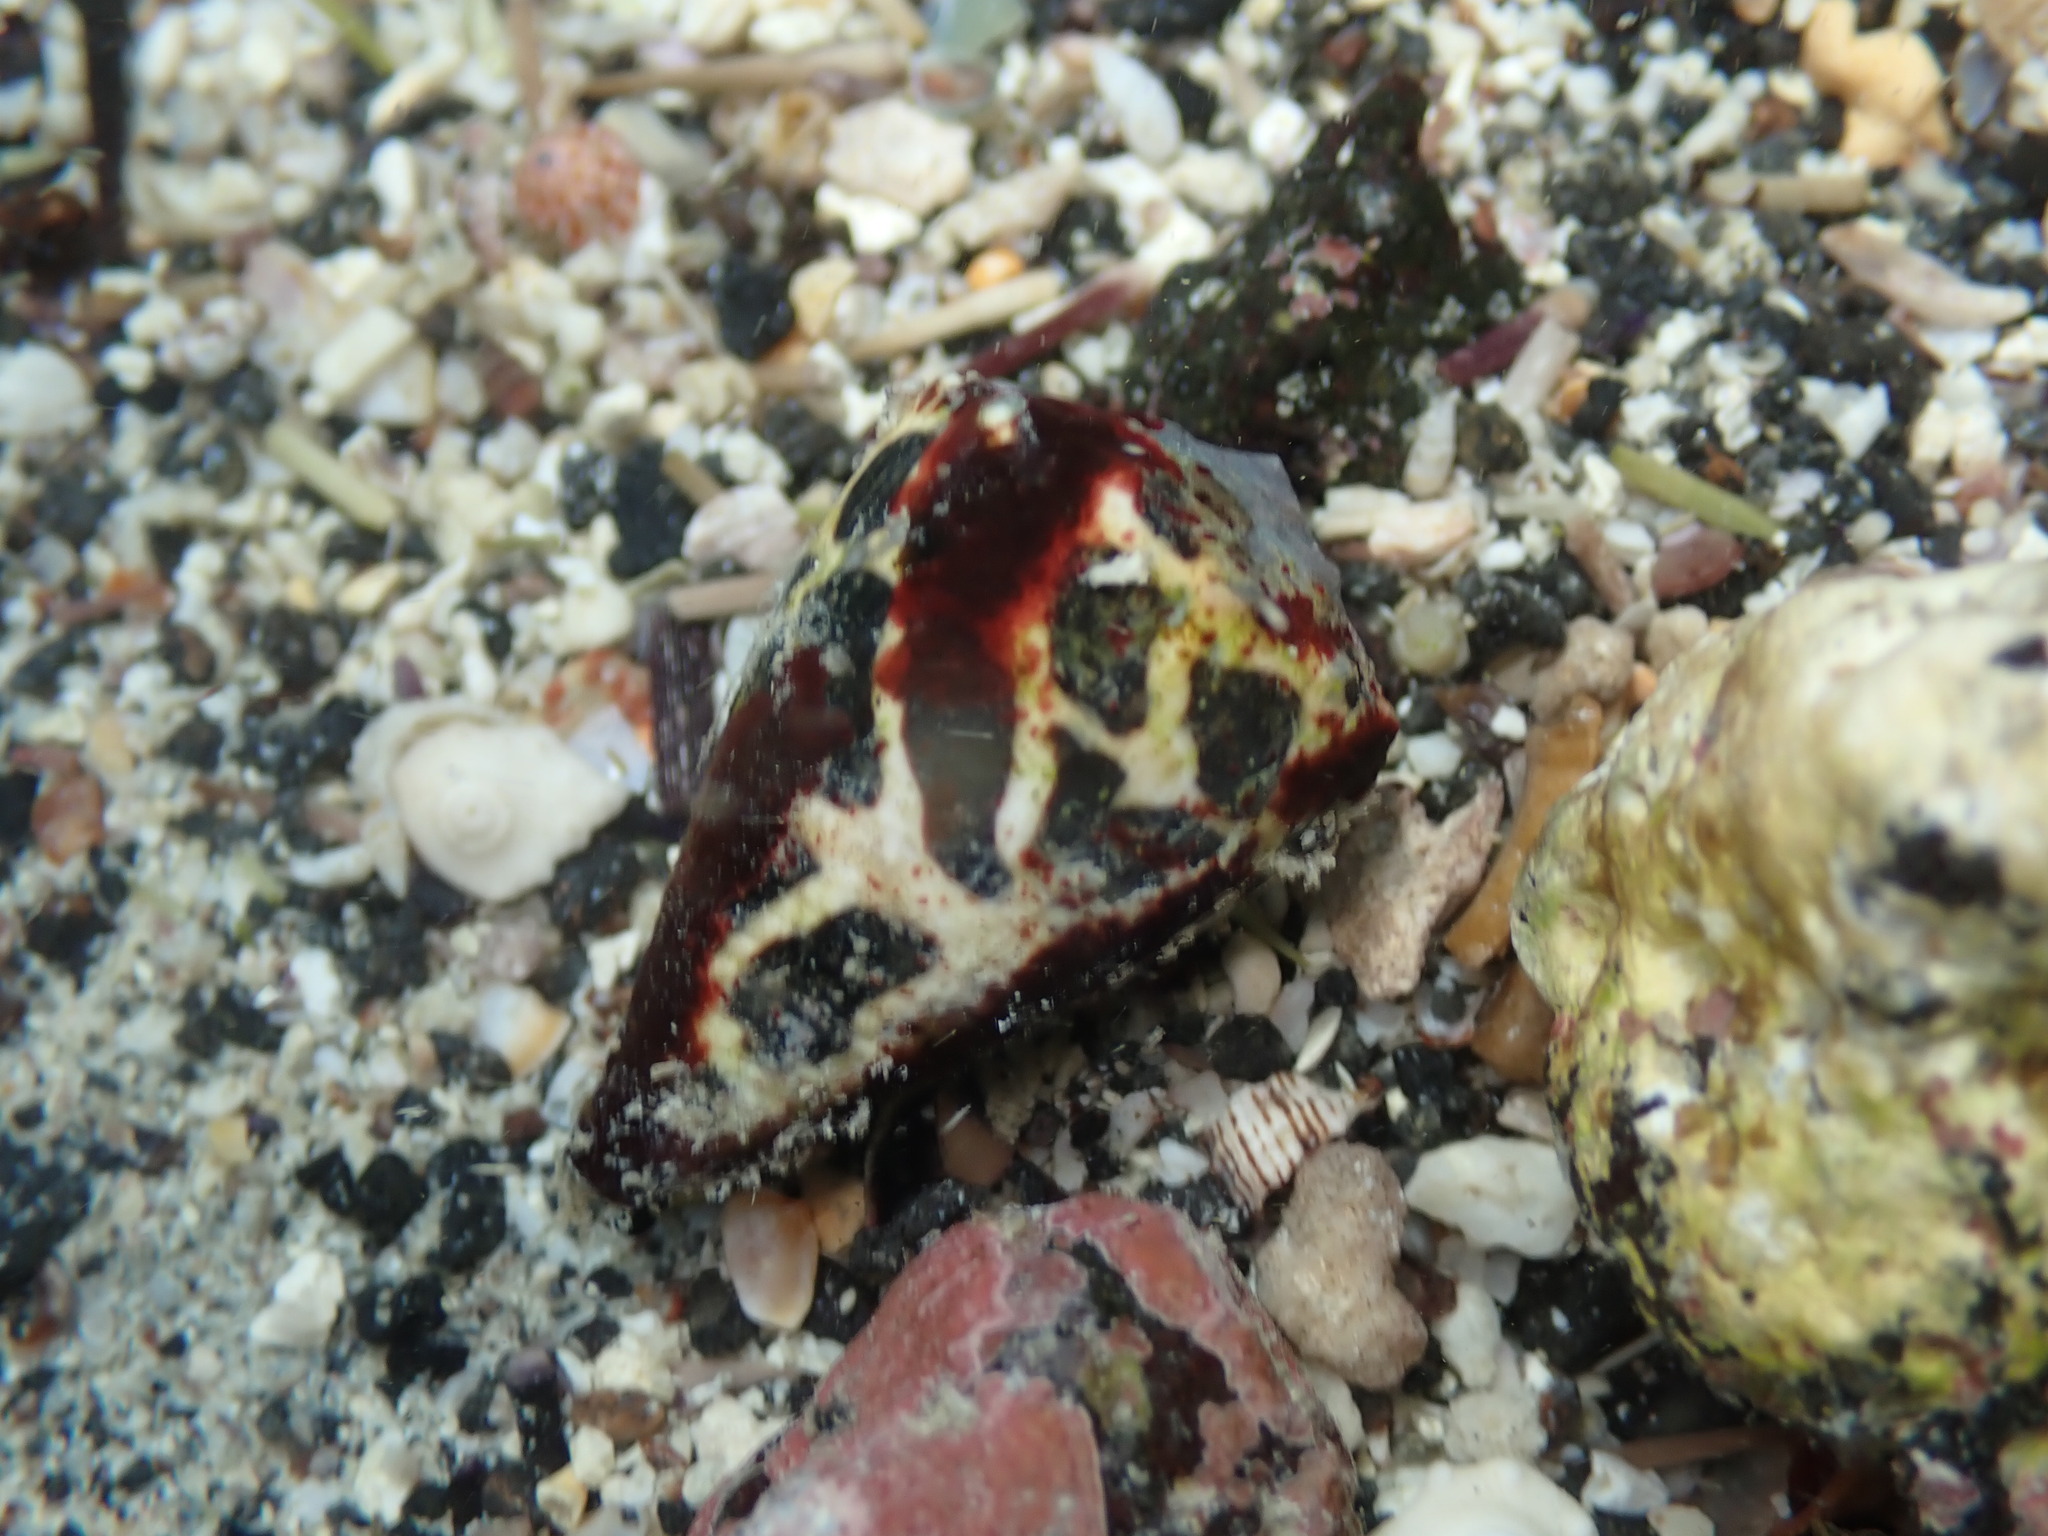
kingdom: Animalia
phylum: Mollusca
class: Gastropoda
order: Neogastropoda
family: Conidae
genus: Conus
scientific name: Conus ebraeus
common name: Hebrew cone
